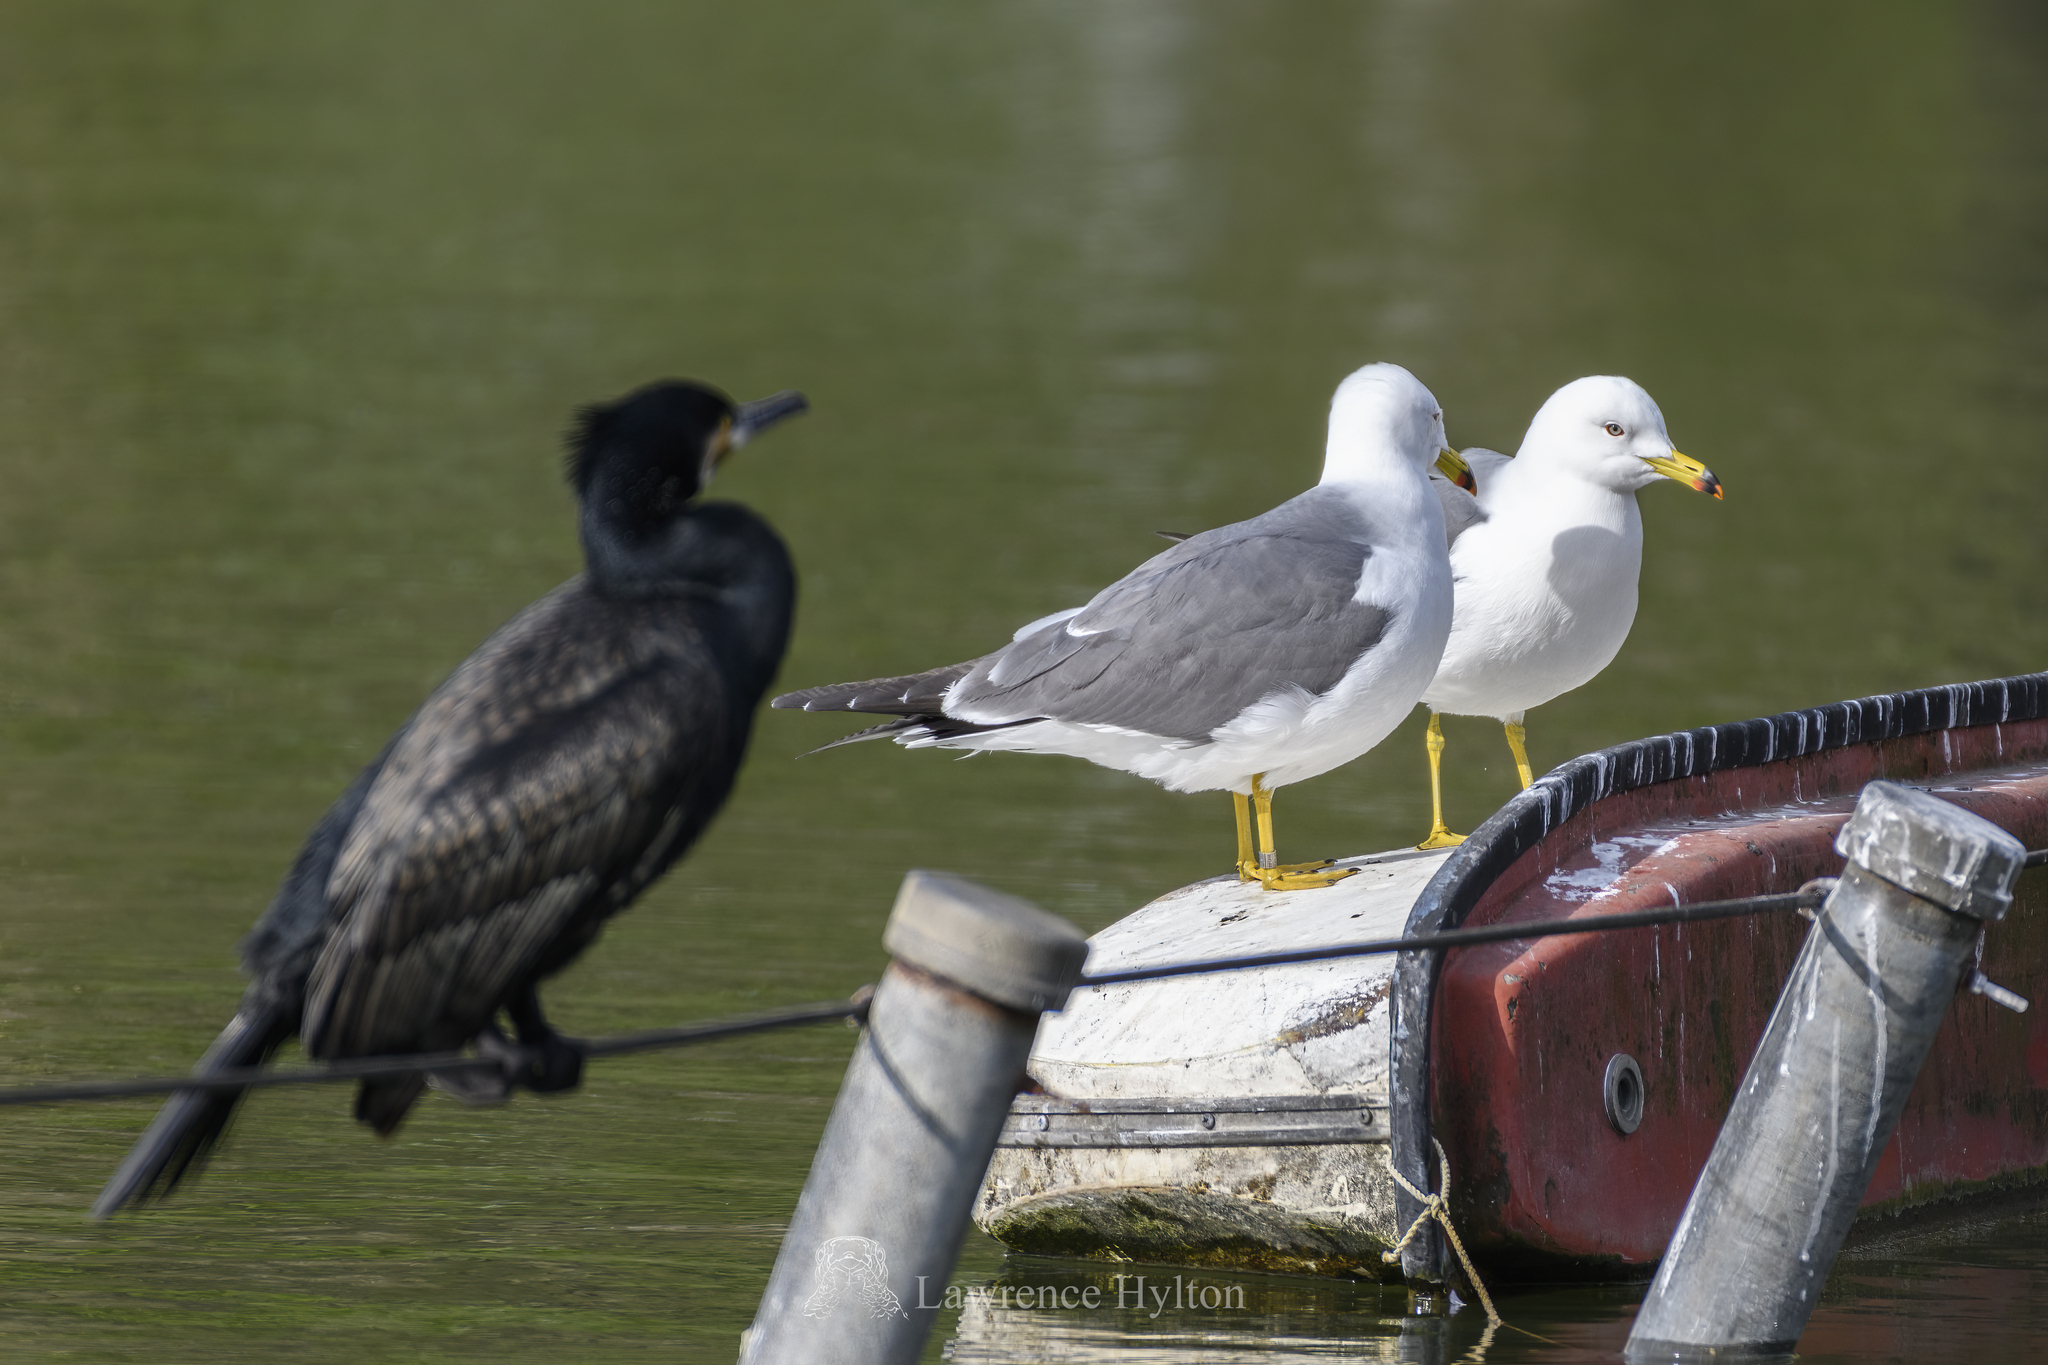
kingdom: Animalia
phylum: Chordata
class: Aves
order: Charadriiformes
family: Laridae
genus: Larus
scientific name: Larus crassirostris
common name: Black-tailed gull
